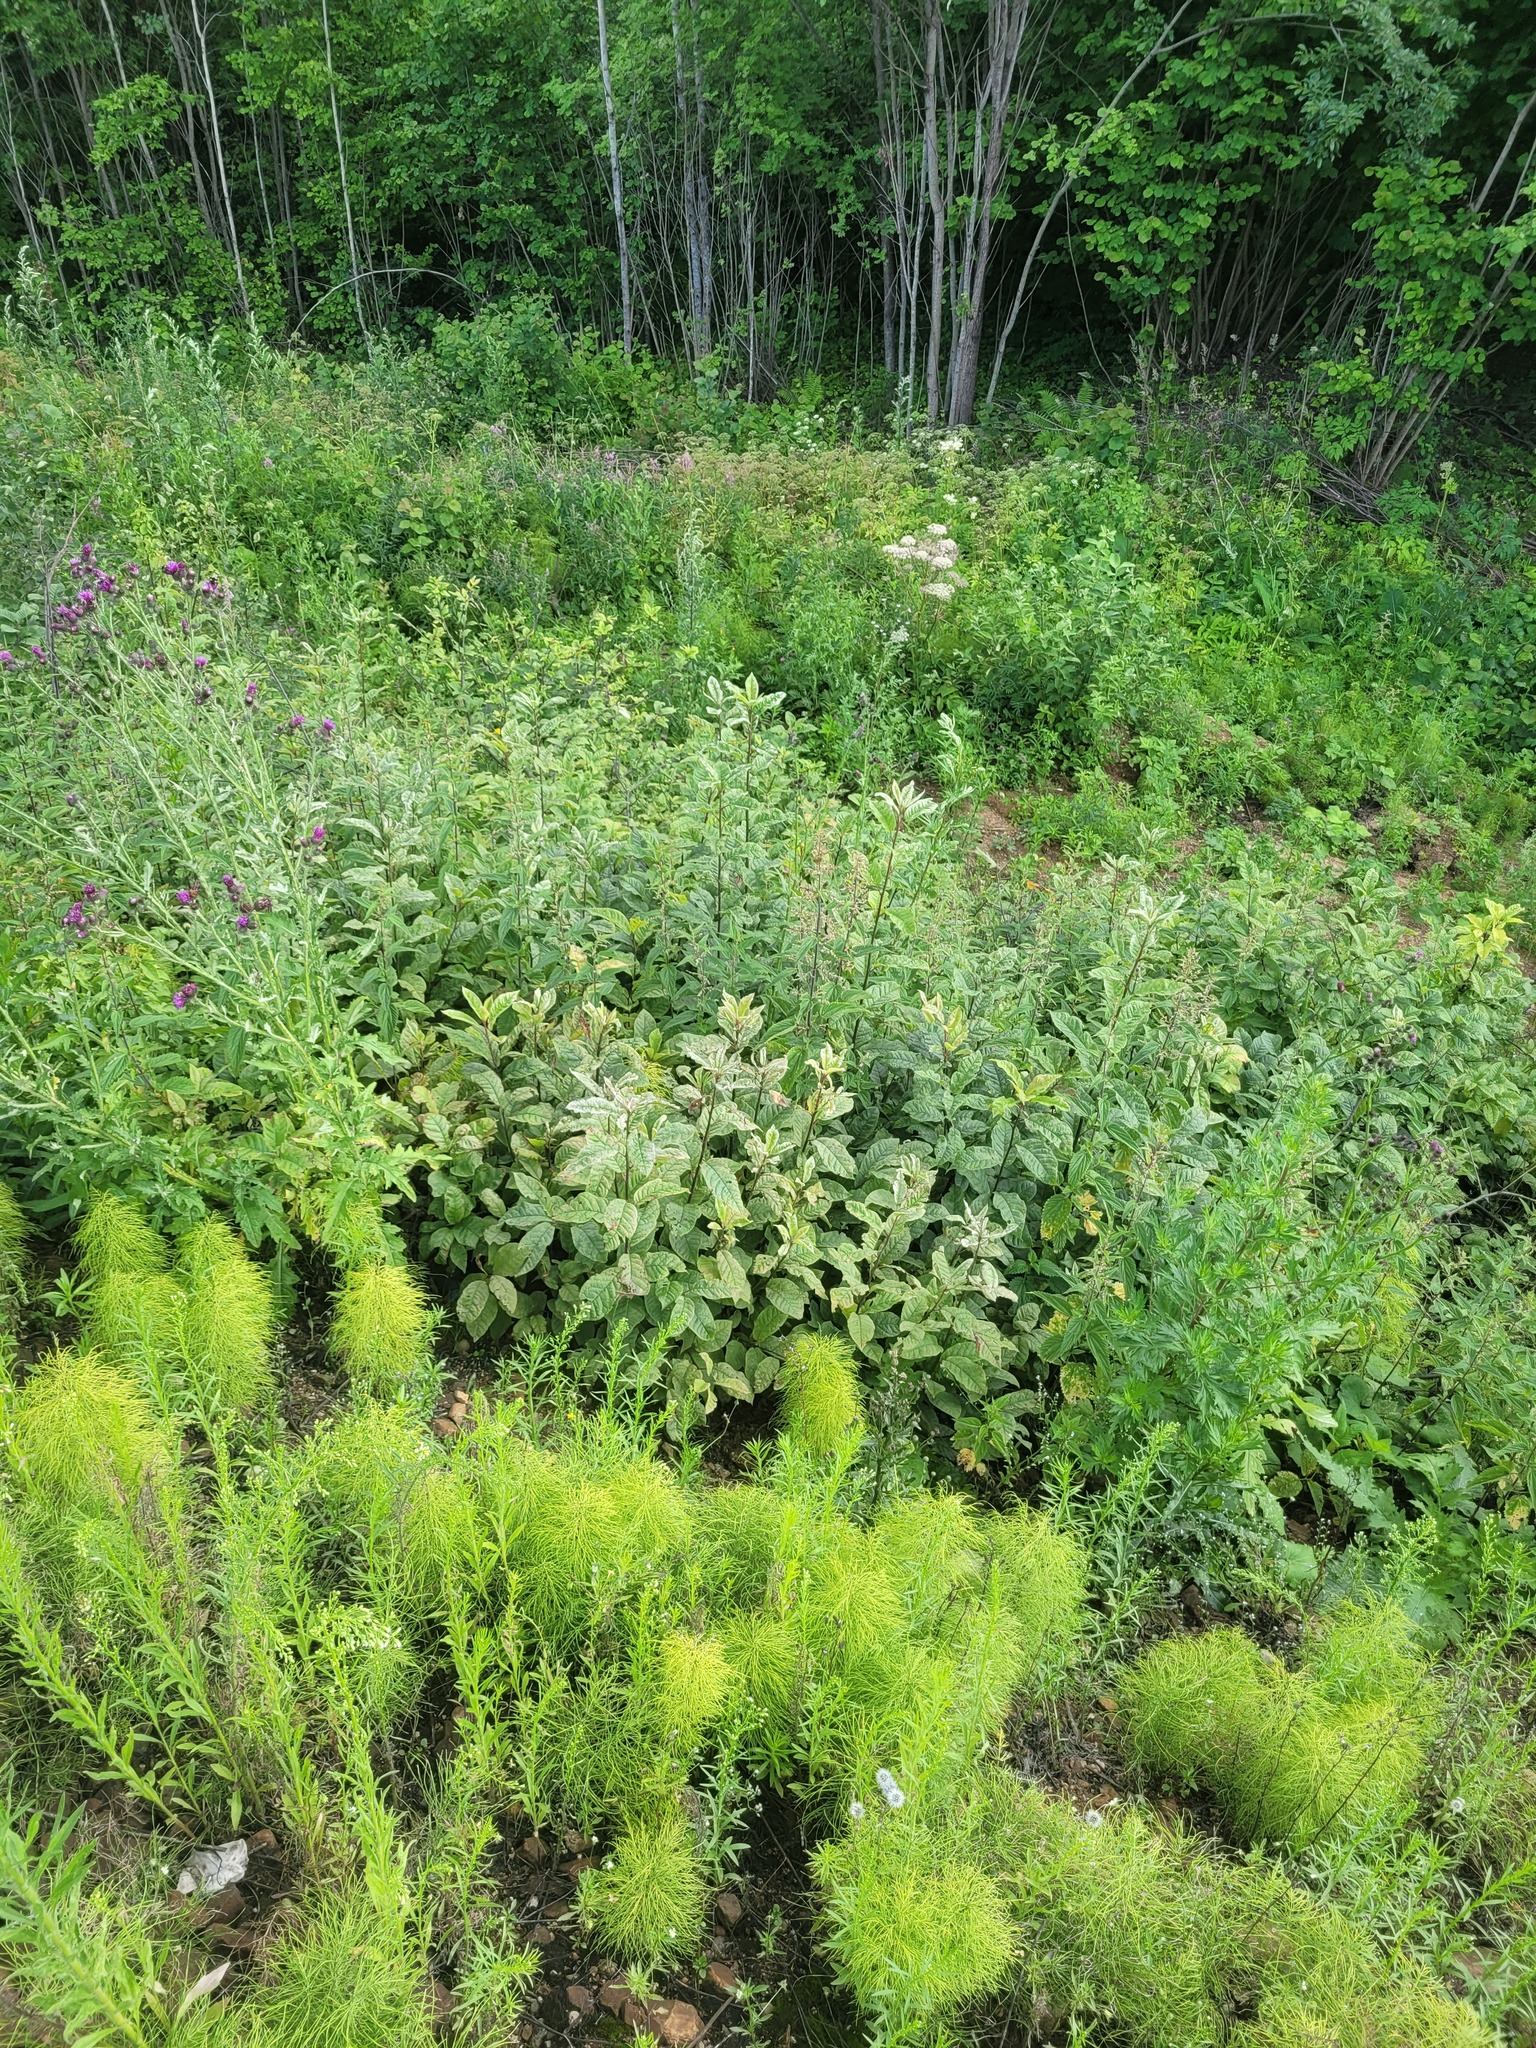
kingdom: Plantae
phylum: Tracheophyta
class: Magnoliopsida
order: Rosales
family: Rosaceae
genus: Prunus
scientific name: Prunus padus
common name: Bird cherry
